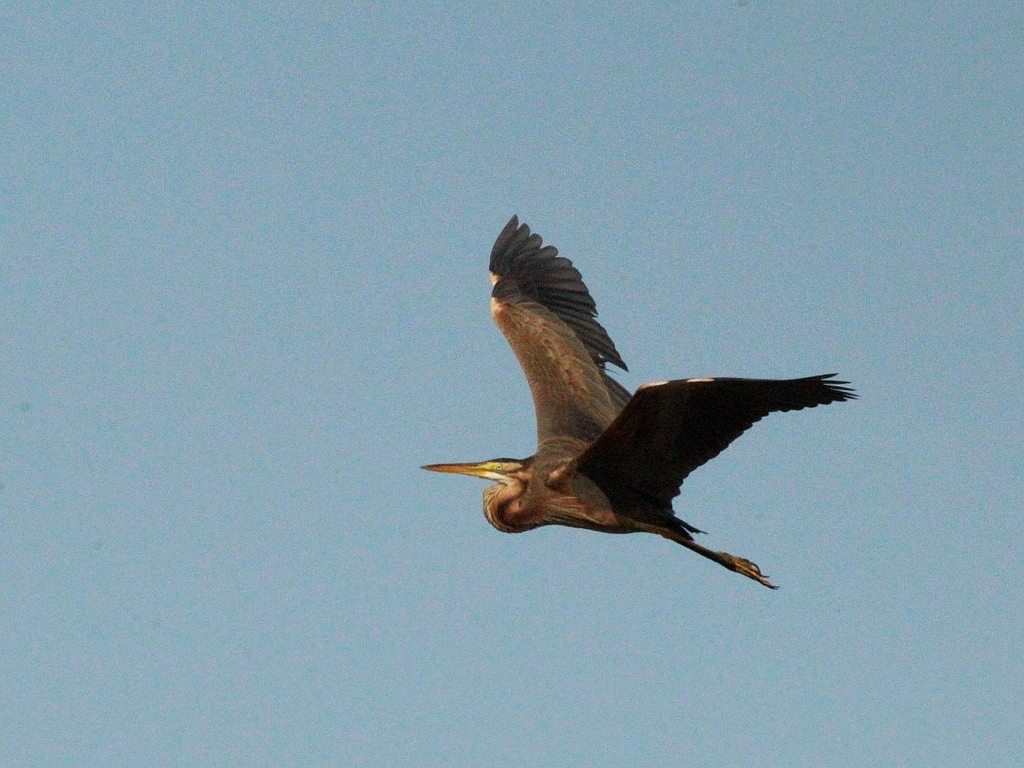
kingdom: Animalia
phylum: Chordata
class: Aves
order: Pelecaniformes
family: Ardeidae
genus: Ardea
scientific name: Ardea purpurea
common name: Purple heron
